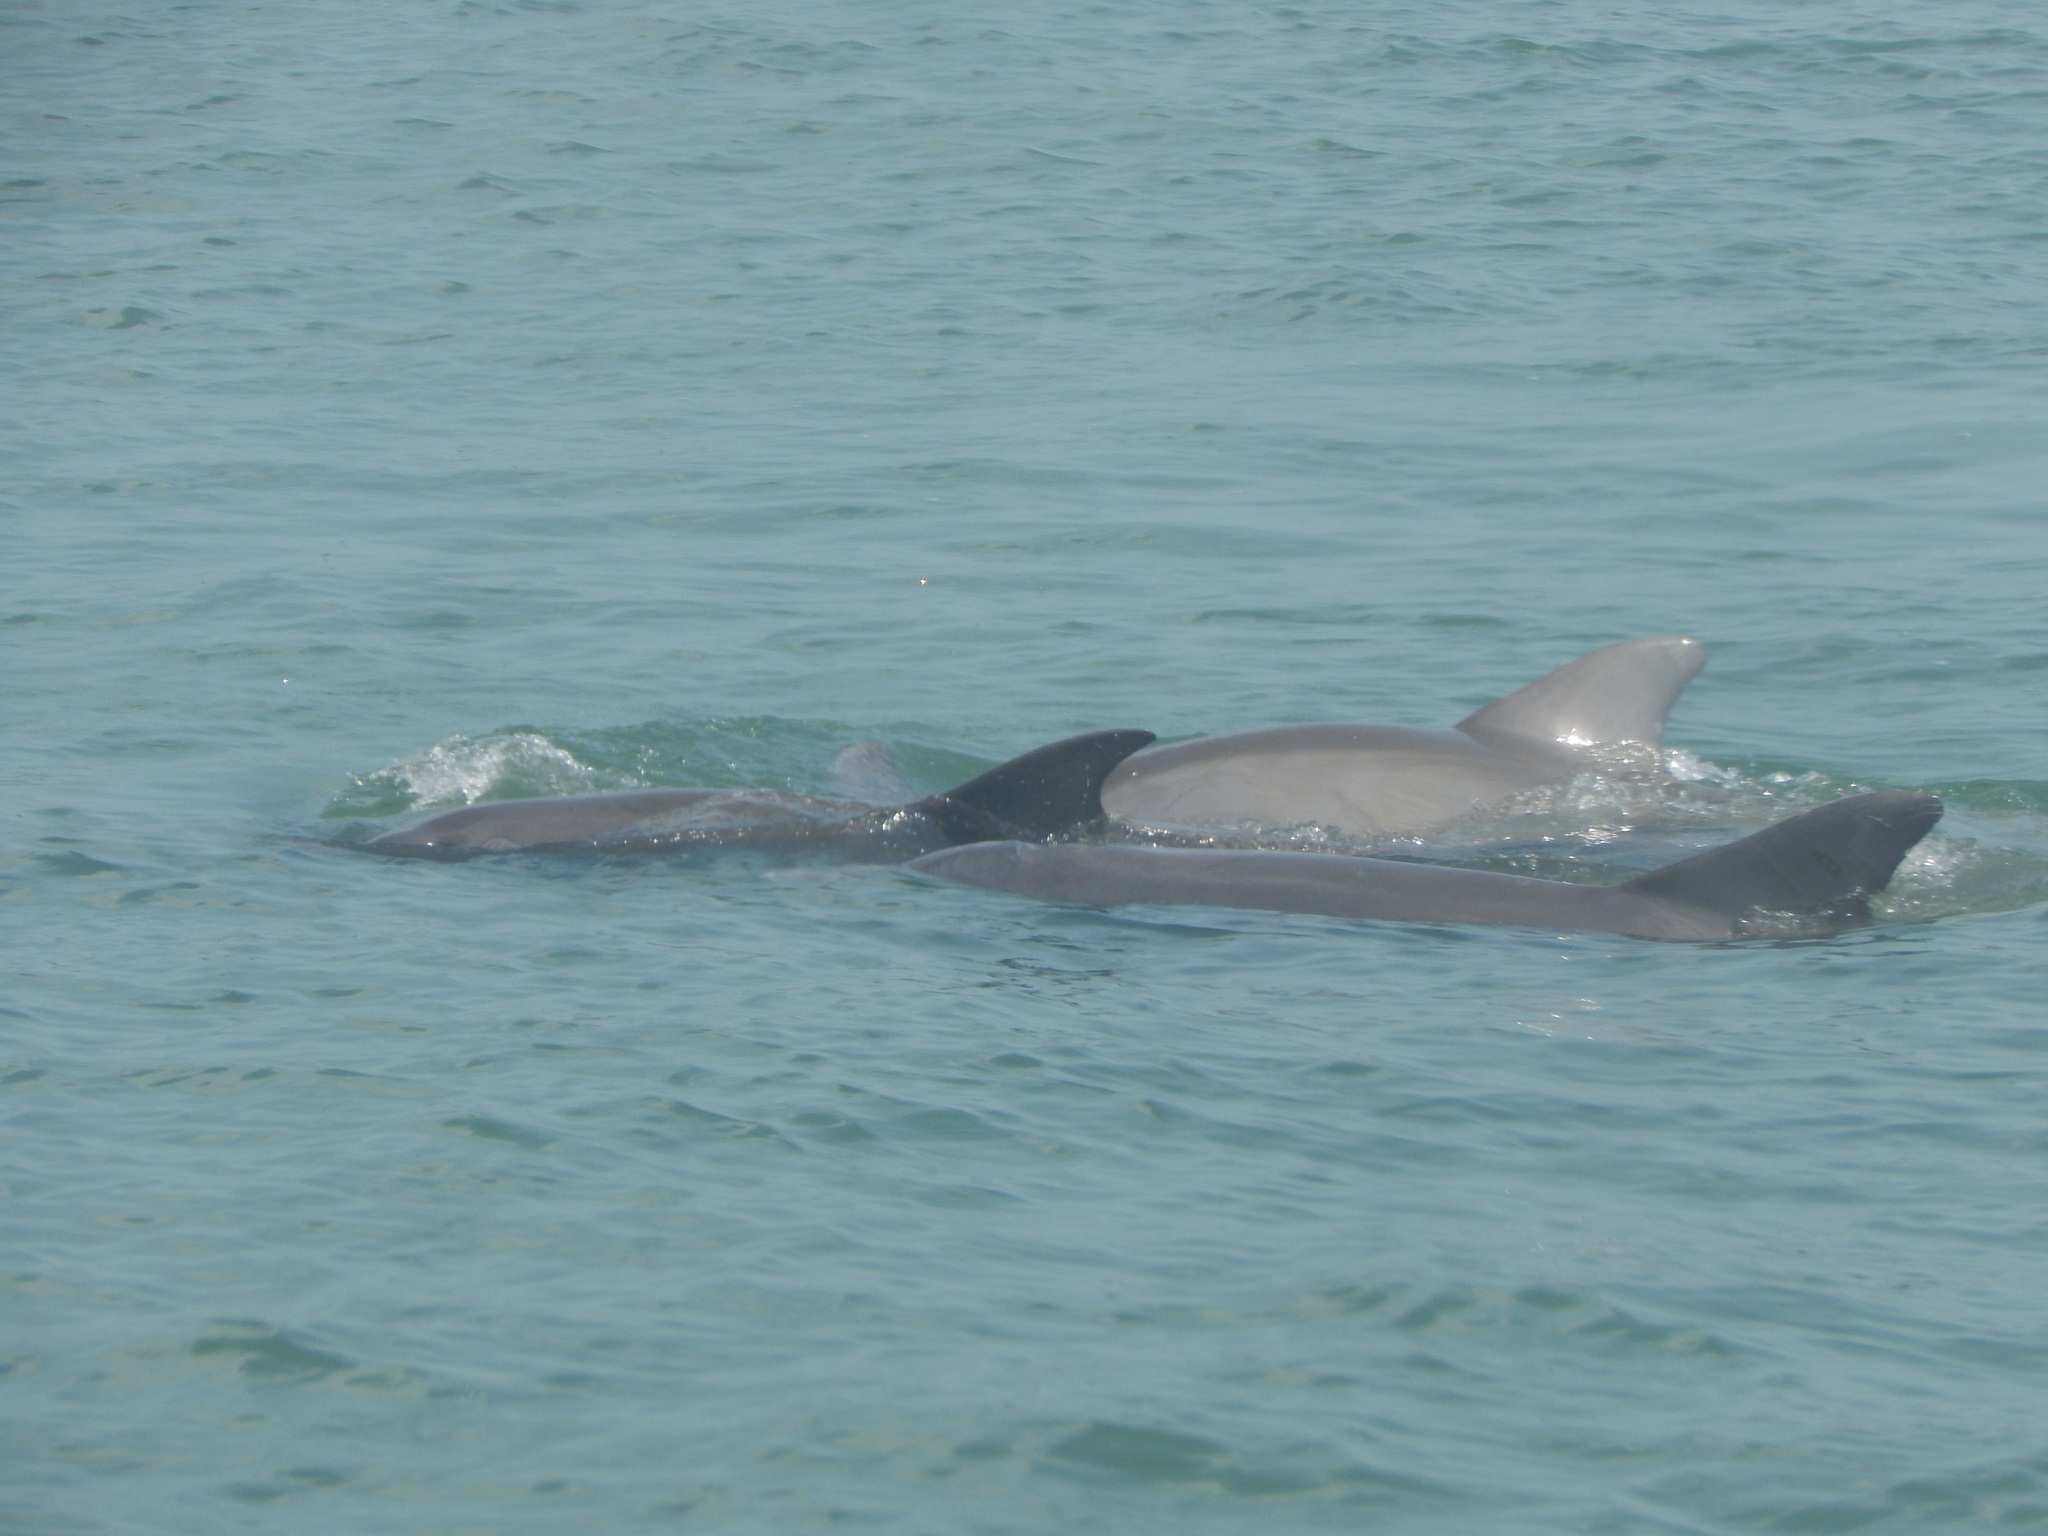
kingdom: Animalia
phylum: Chordata
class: Mammalia
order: Cetacea
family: Delphinidae
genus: Tursiops
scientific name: Tursiops truncatus
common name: Bottlenose dolphin
